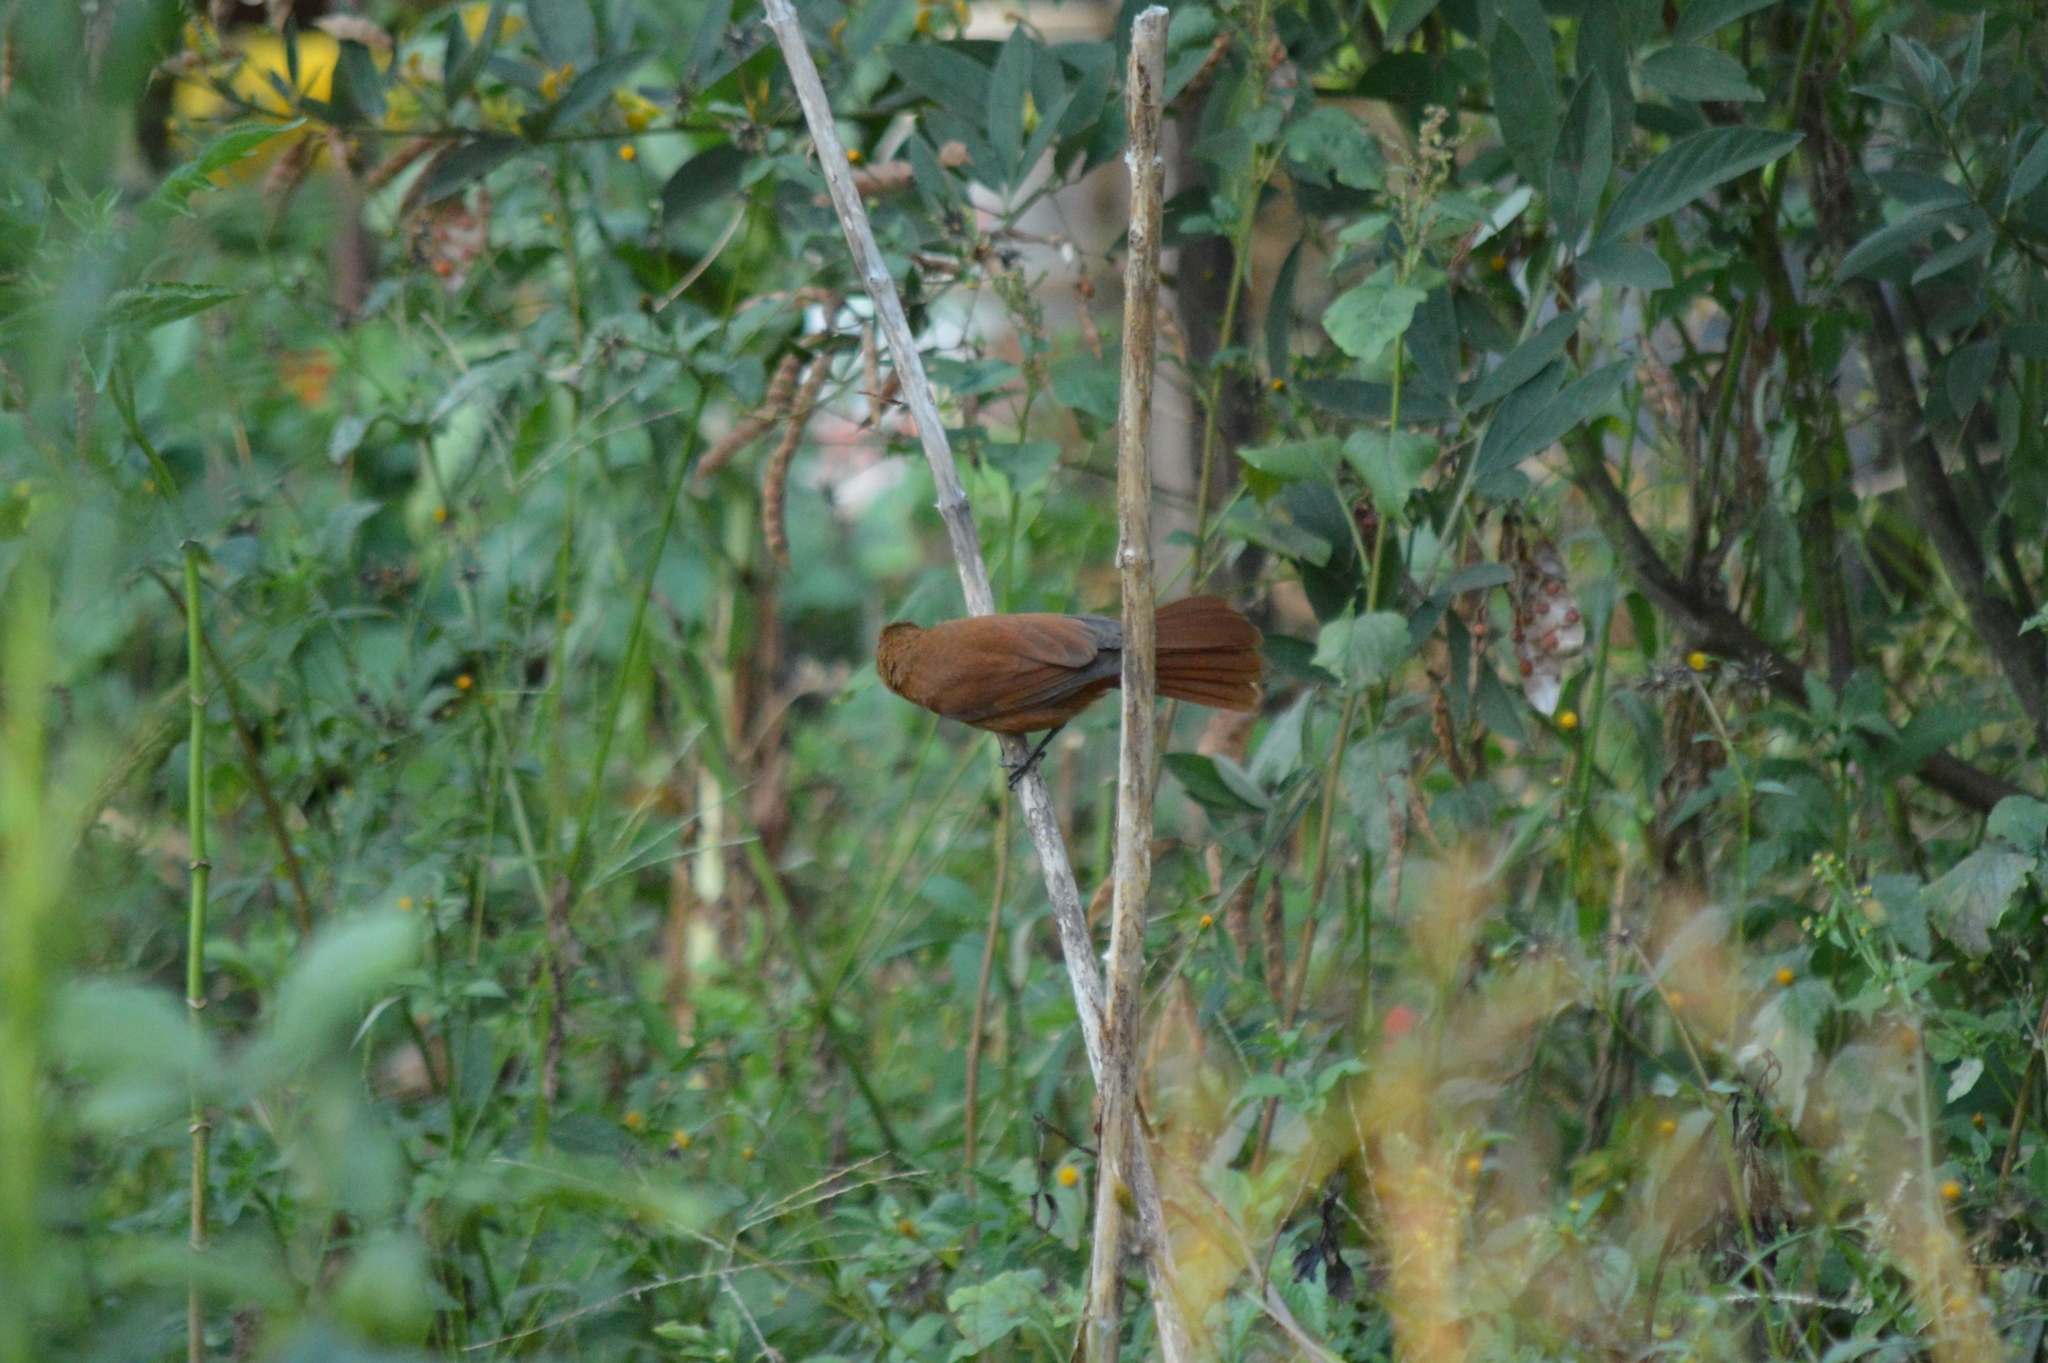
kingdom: Animalia
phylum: Chordata
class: Aves
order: Passeriformes
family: Thraupidae
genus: Tachyphonus
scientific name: Tachyphonus rufus
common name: White-lined tanager
